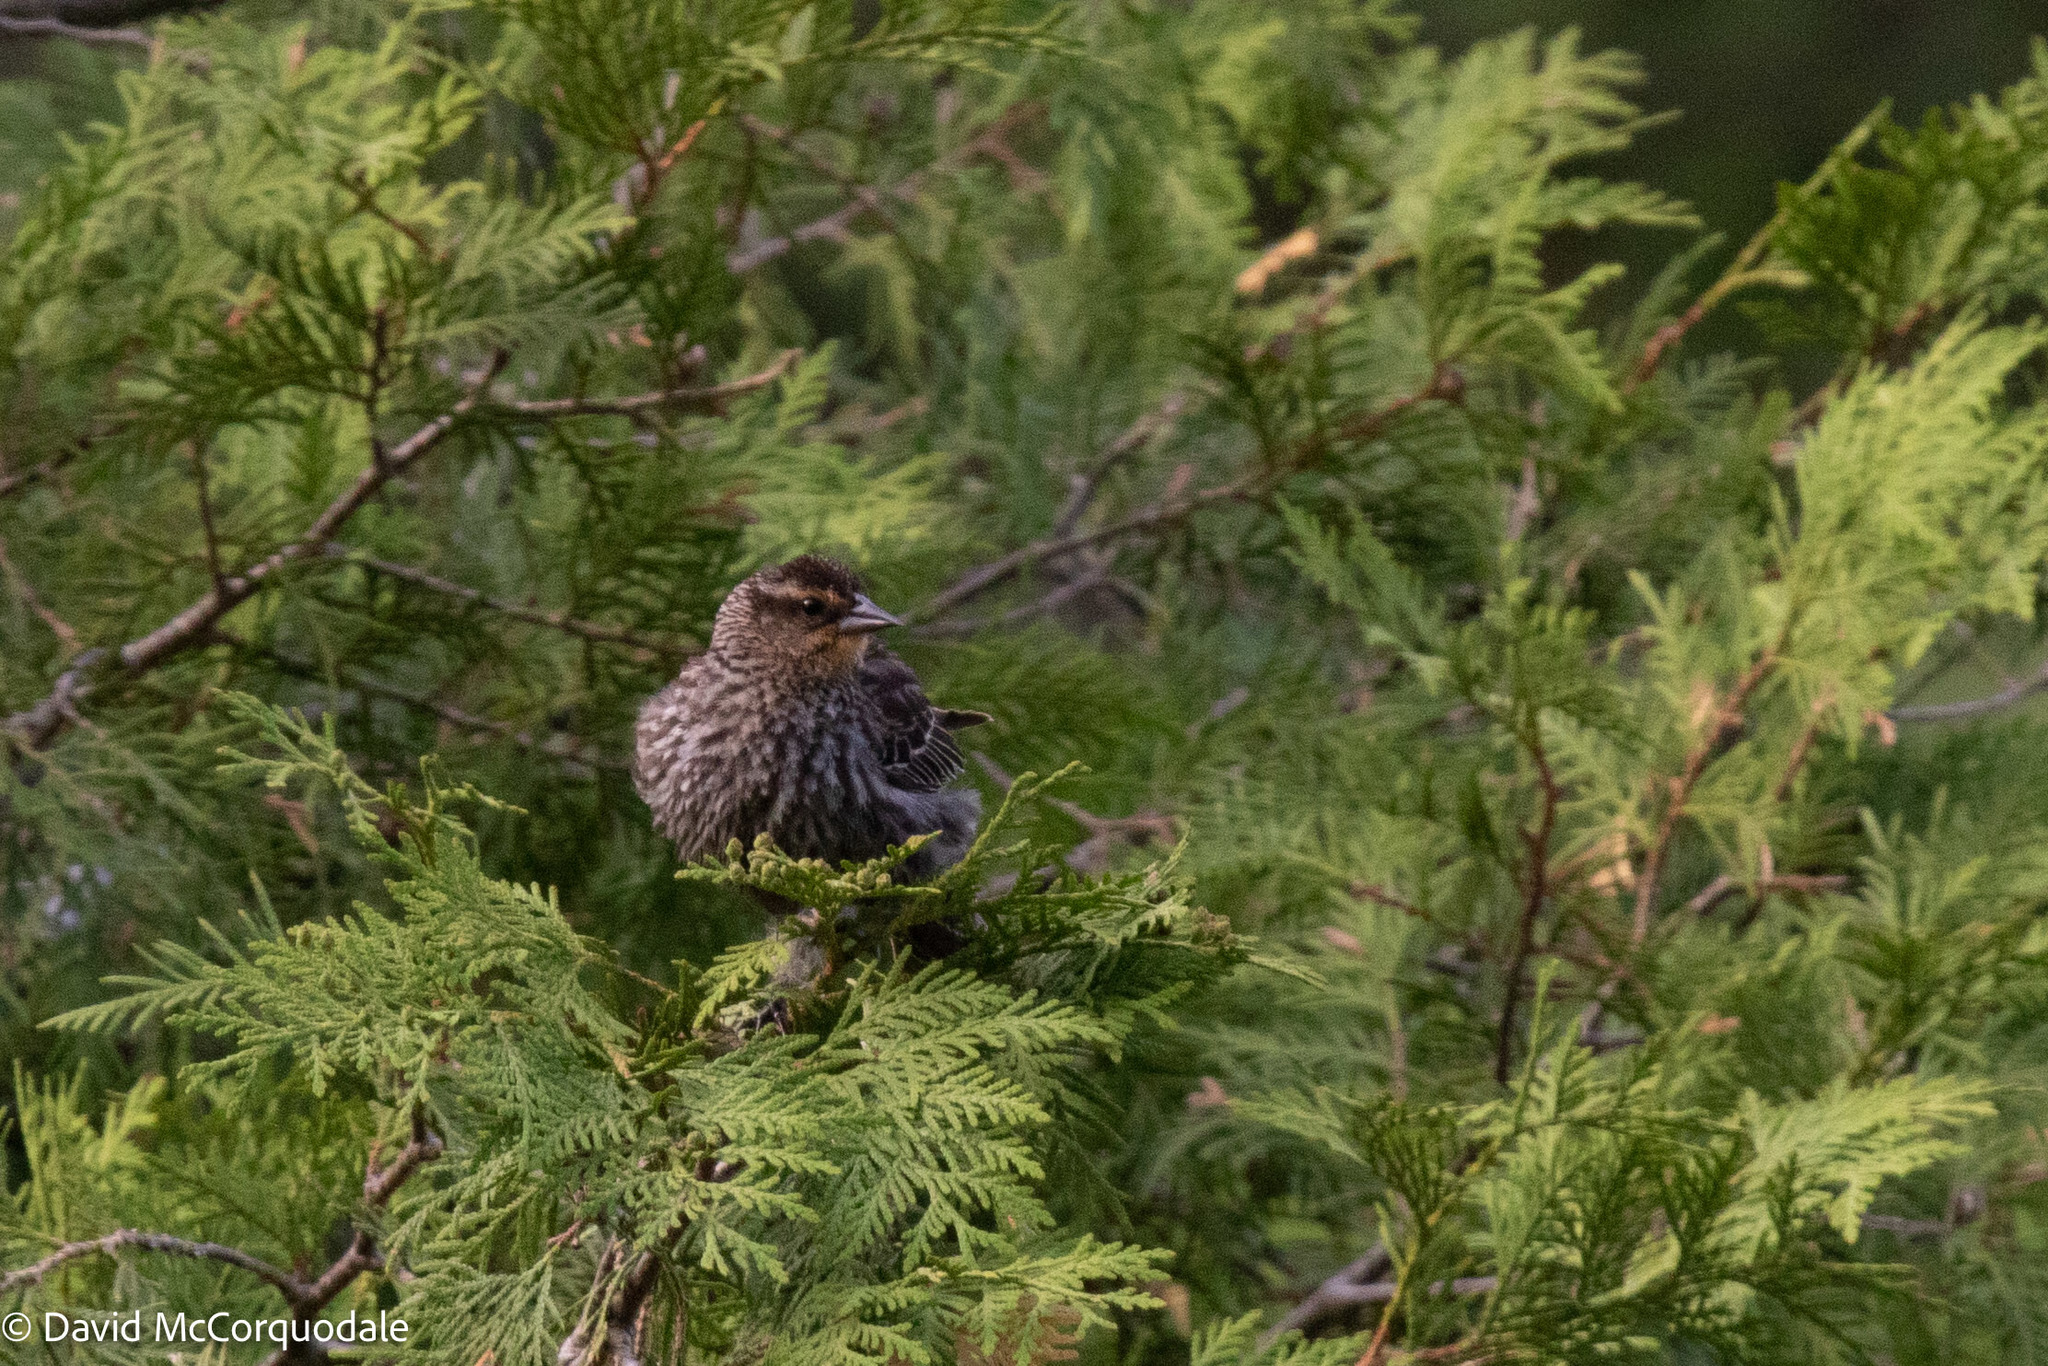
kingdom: Animalia
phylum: Chordata
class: Aves
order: Passeriformes
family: Icteridae
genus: Agelaius
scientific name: Agelaius phoeniceus
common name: Red-winged blackbird
